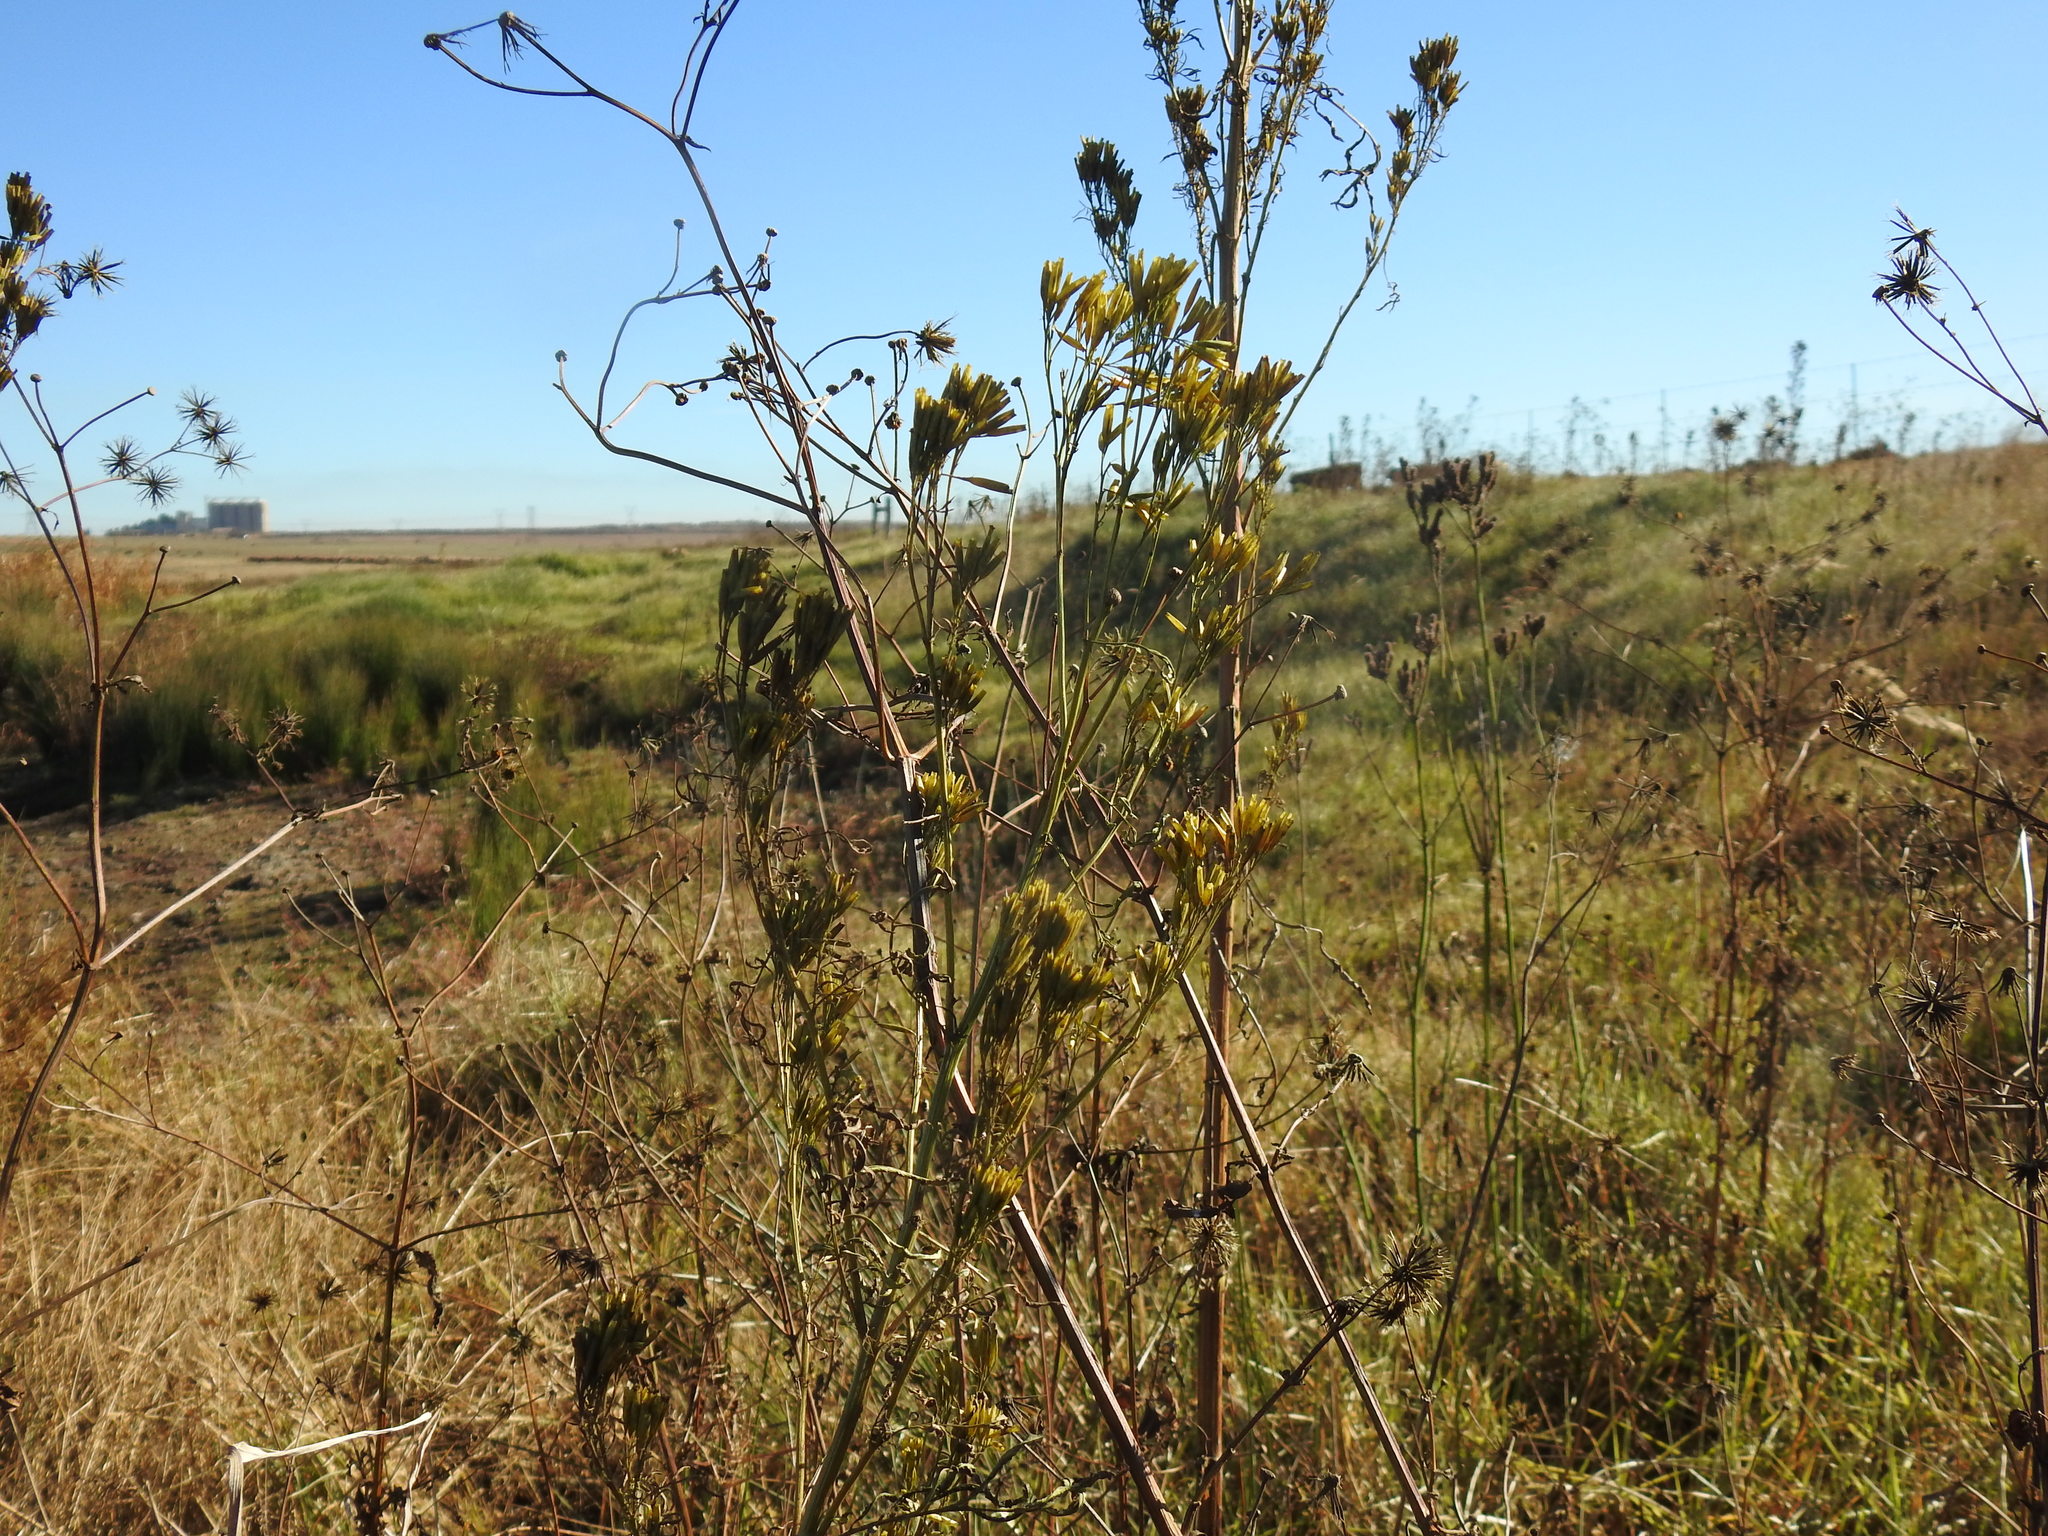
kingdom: Plantae
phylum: Tracheophyta
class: Magnoliopsida
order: Asterales
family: Asteraceae
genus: Tagetes
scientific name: Tagetes minuta
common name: Muster john henry
